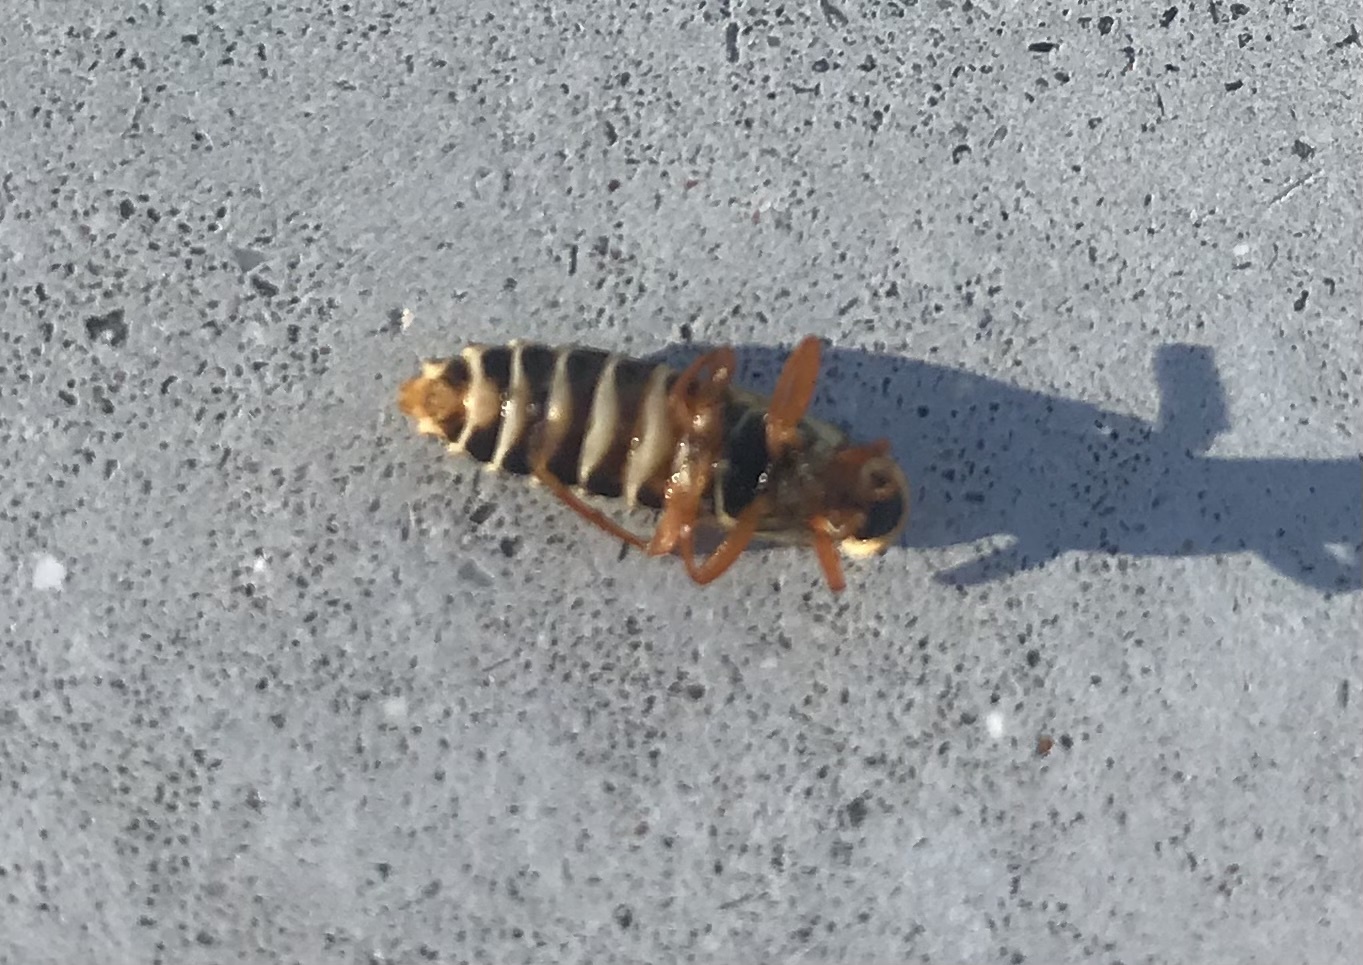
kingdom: Animalia
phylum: Arthropoda
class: Insecta
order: Coleoptera
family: Cantharidae
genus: Chauliognathus
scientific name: Chauliognathus
